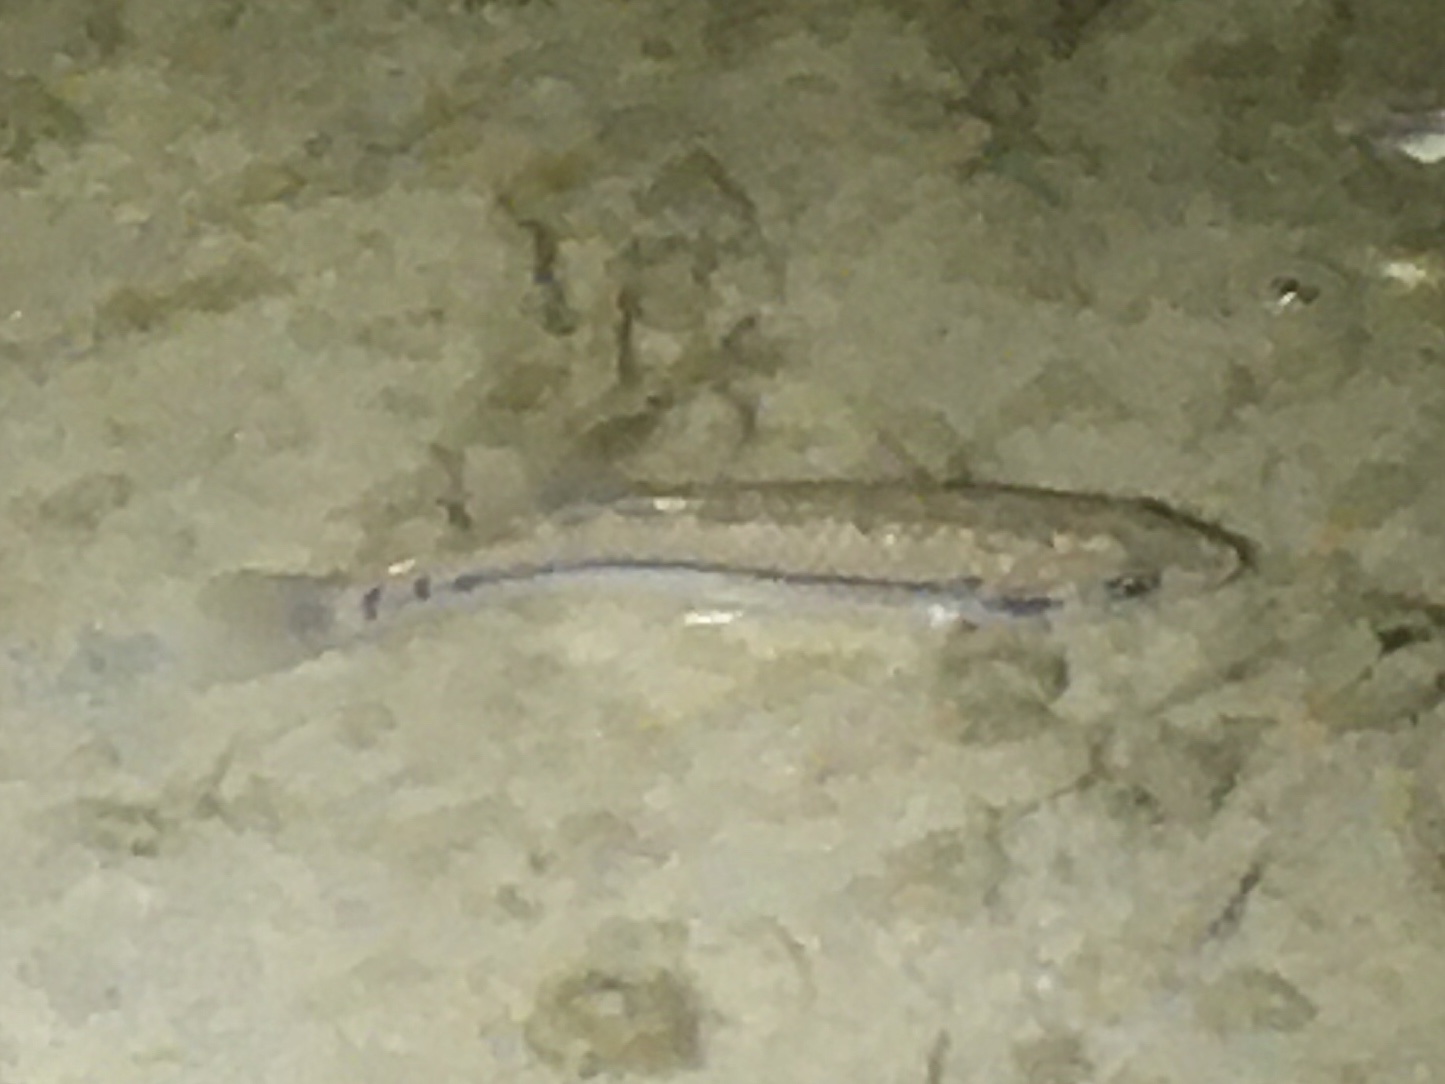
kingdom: Animalia
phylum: Chordata
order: Cyprinodontiformes
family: Fundulidae
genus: Fundulus
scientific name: Fundulus majalis
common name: Striped killifish
